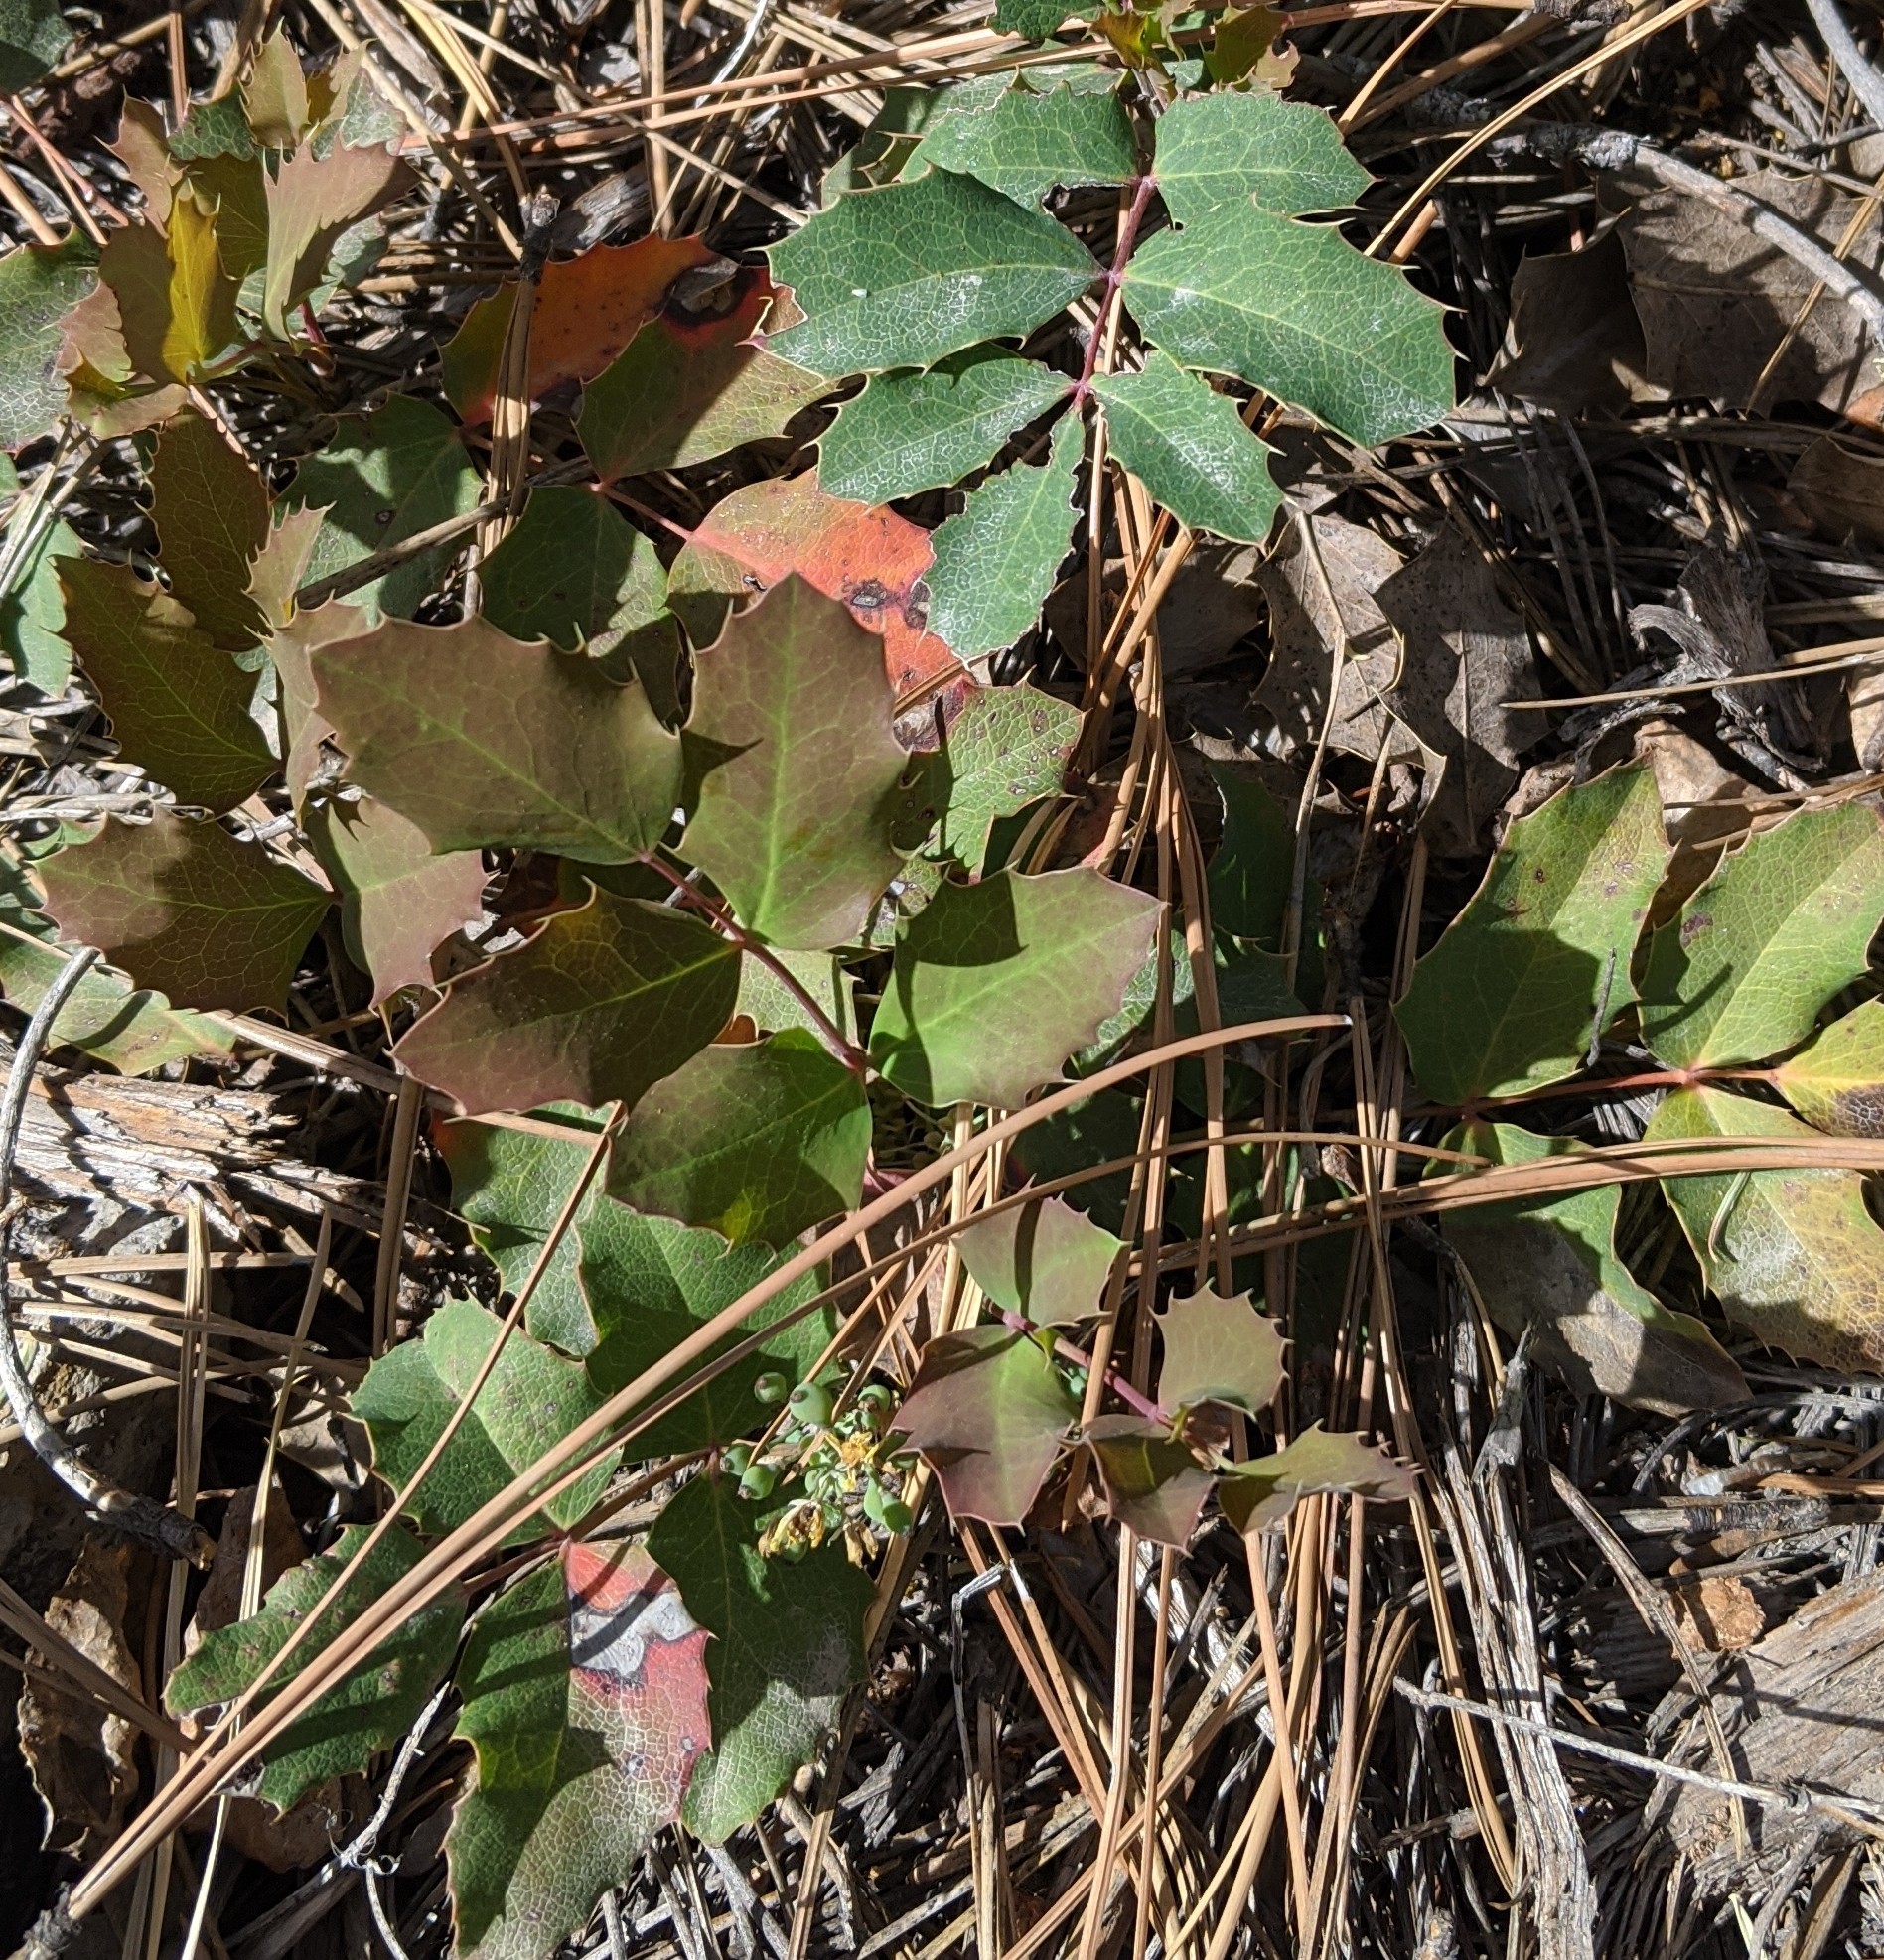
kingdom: Plantae
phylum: Tracheophyta
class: Magnoliopsida
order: Ranunculales
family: Berberidaceae
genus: Mahonia
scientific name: Mahonia repens
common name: Creeping oregon-grape
